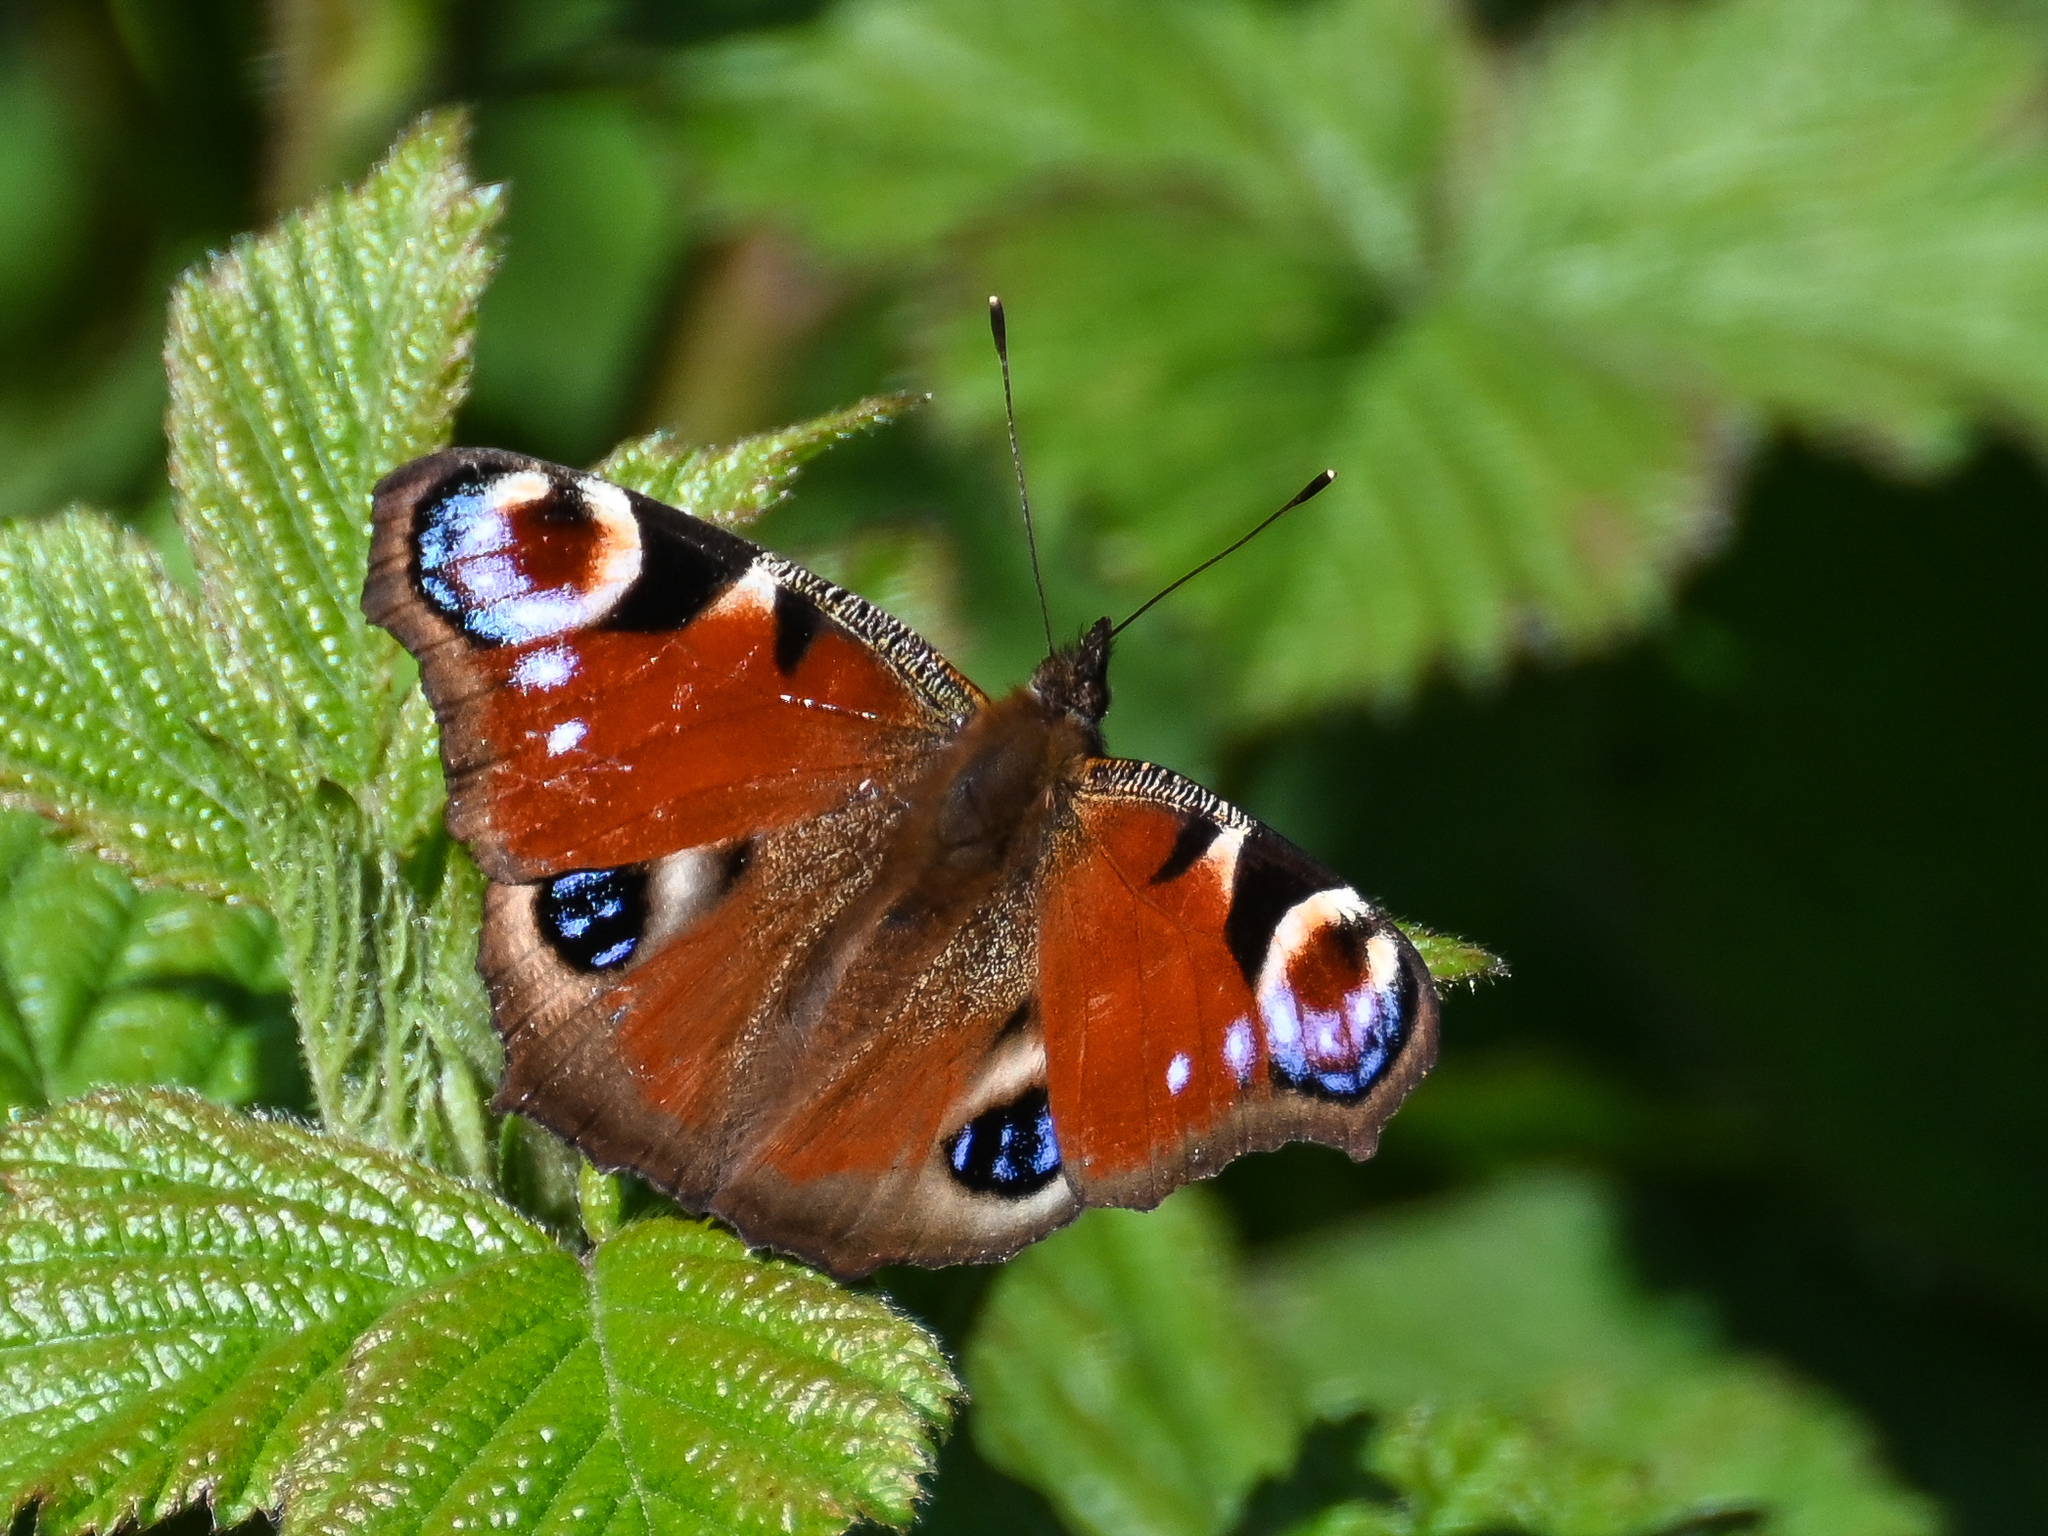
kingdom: Animalia
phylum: Arthropoda
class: Insecta
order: Lepidoptera
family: Nymphalidae
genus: Aglais
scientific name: Aglais io
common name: Peacock
